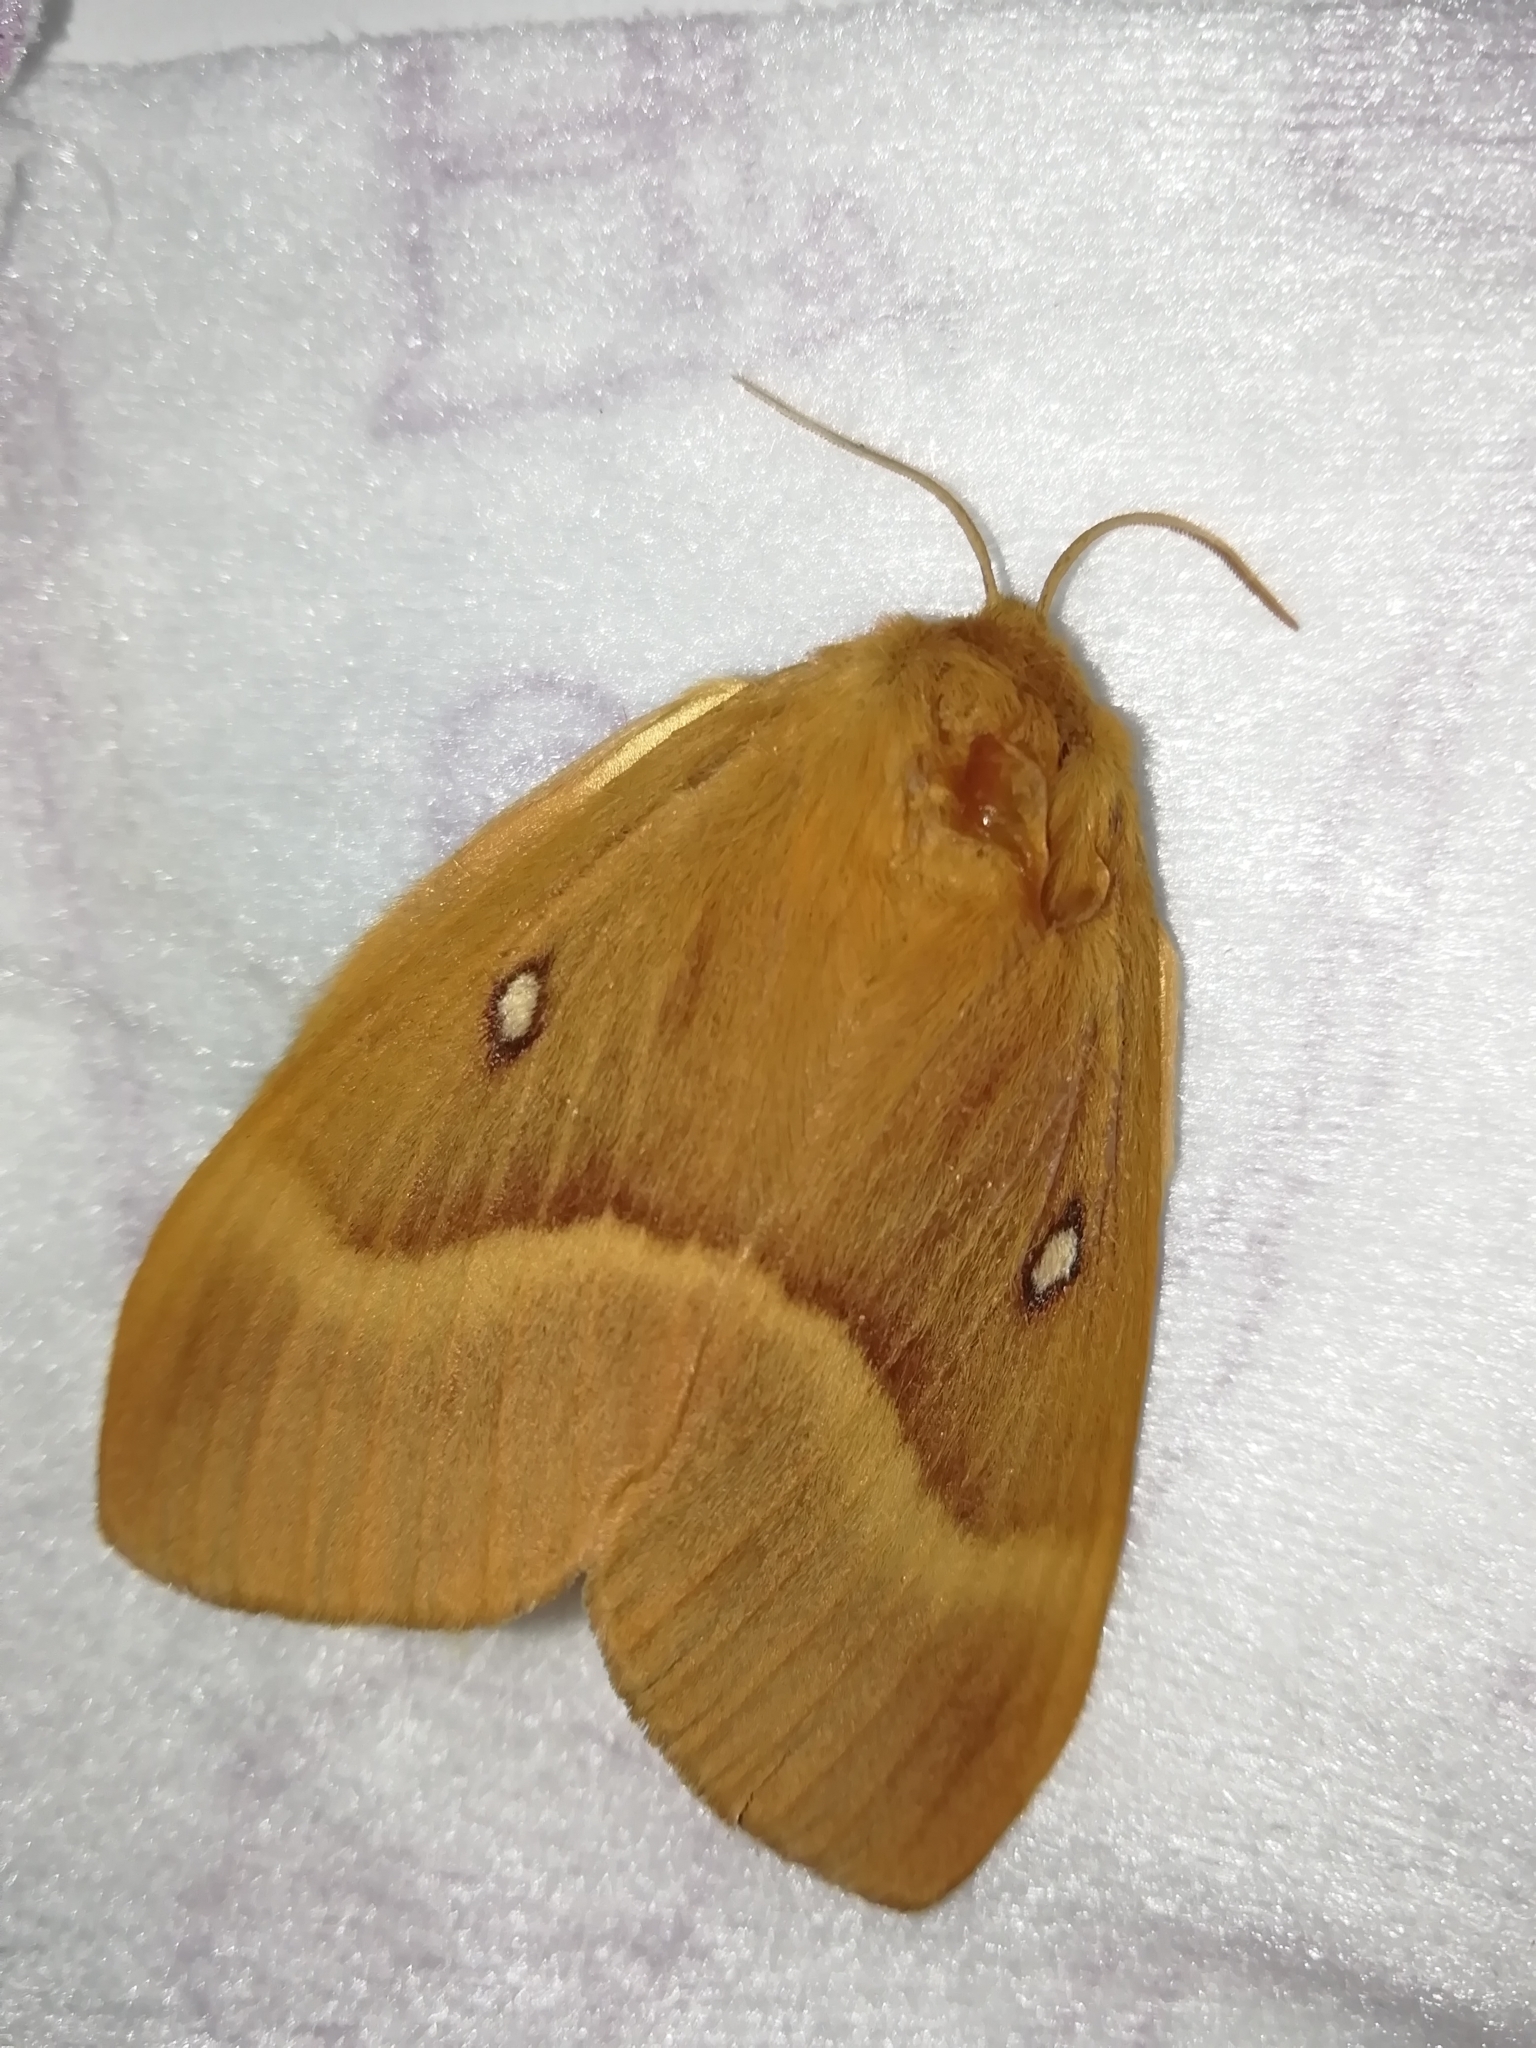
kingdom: Animalia
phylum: Arthropoda
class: Insecta
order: Lepidoptera
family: Lasiocampidae
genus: Lasiocampa
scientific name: Lasiocampa quercus
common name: Oak eggar
